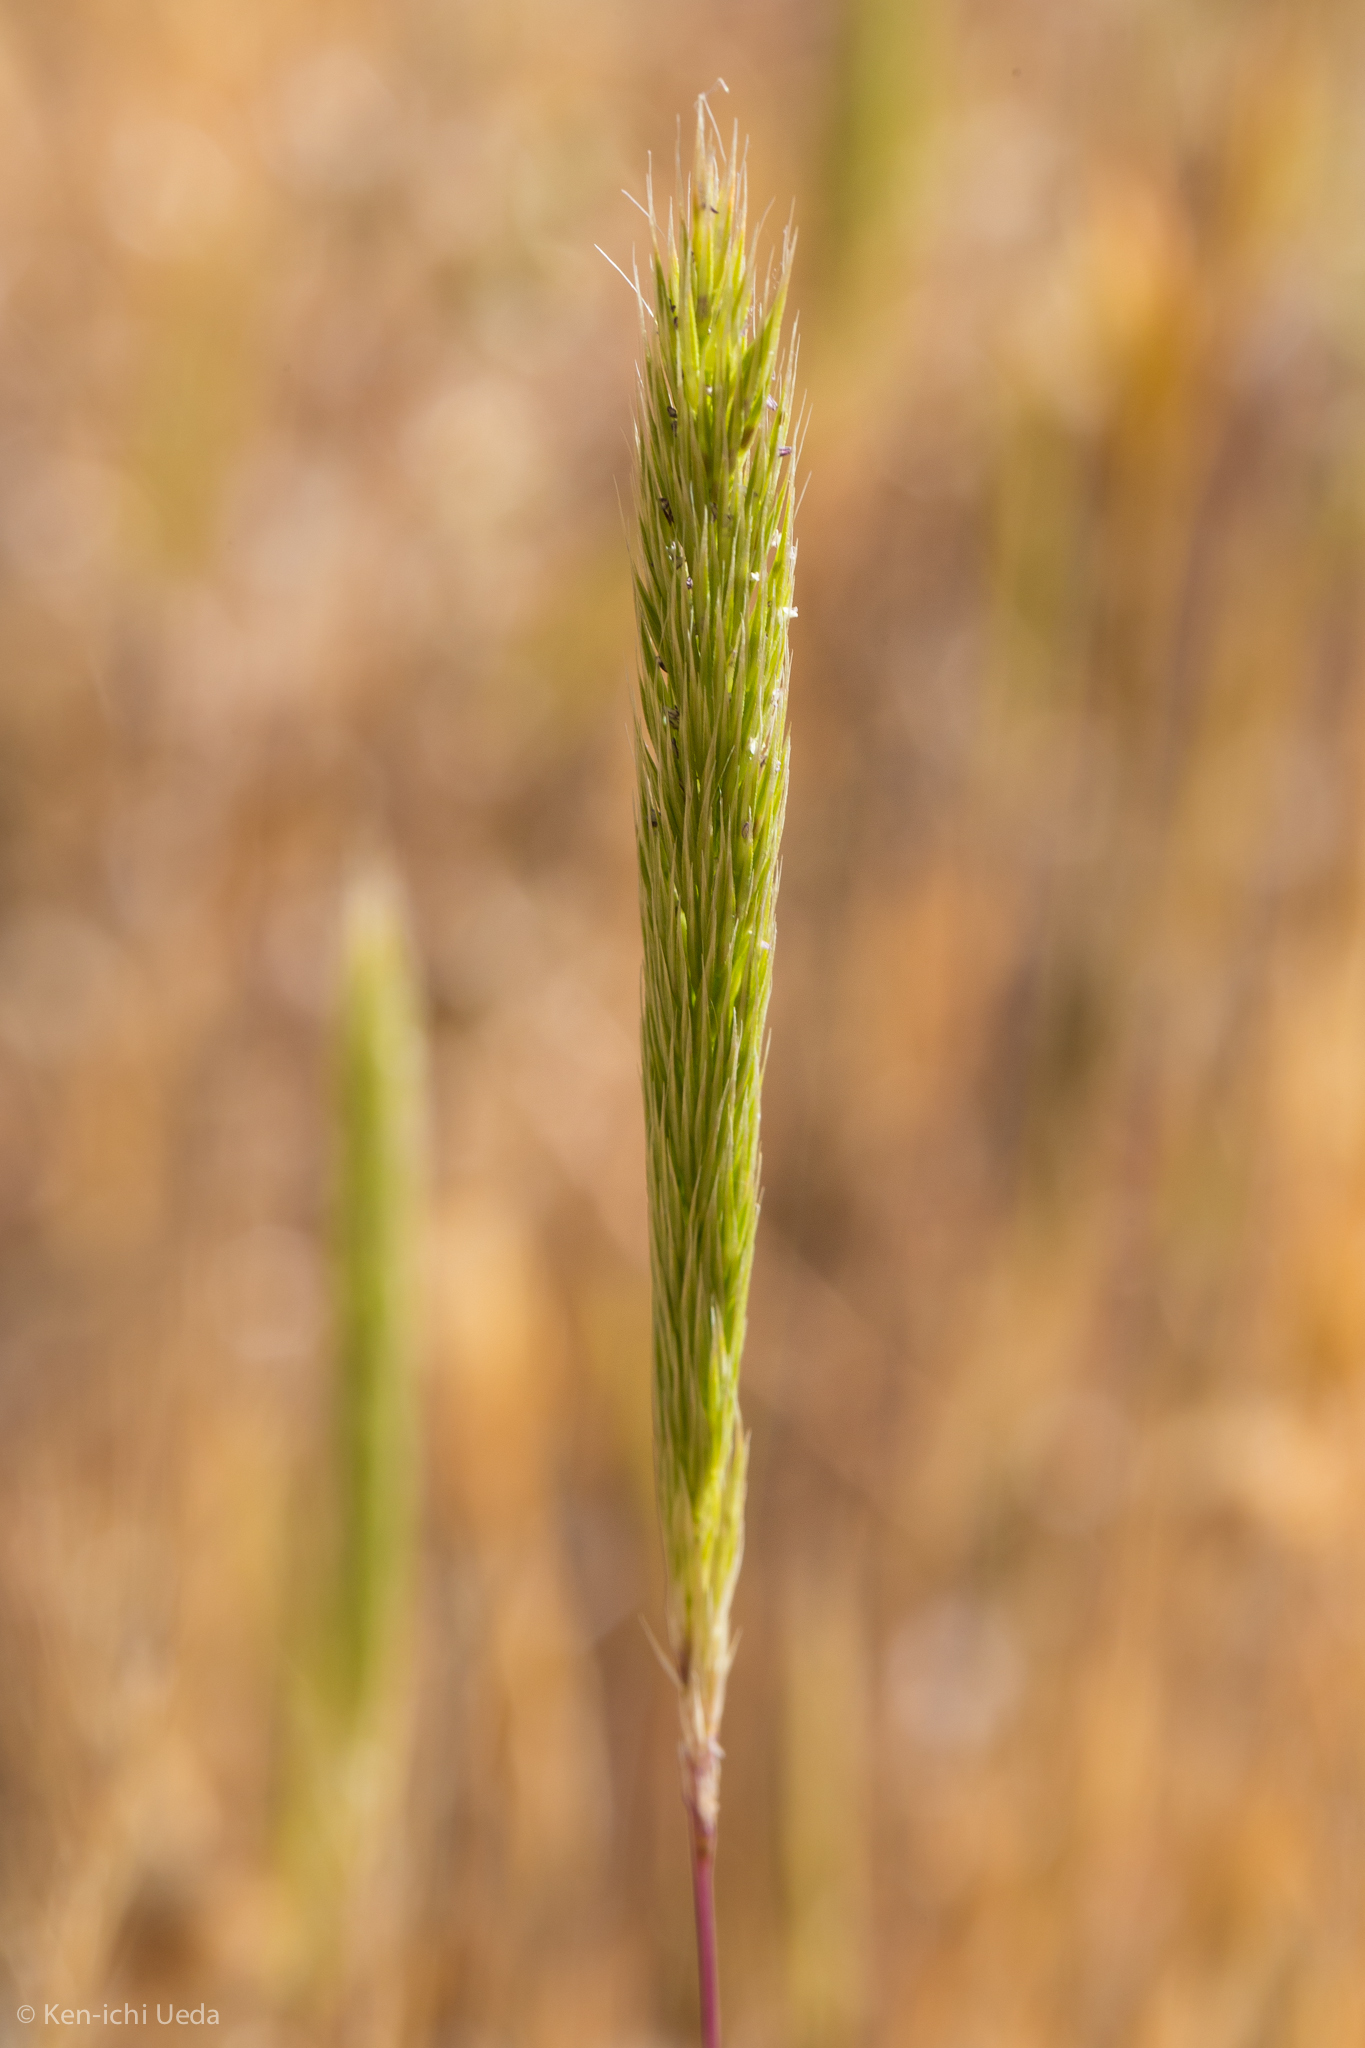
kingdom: Plantae
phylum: Tracheophyta
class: Liliopsida
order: Poales
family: Poaceae
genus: Gastridium
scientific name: Gastridium phleoides
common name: Nit grass
